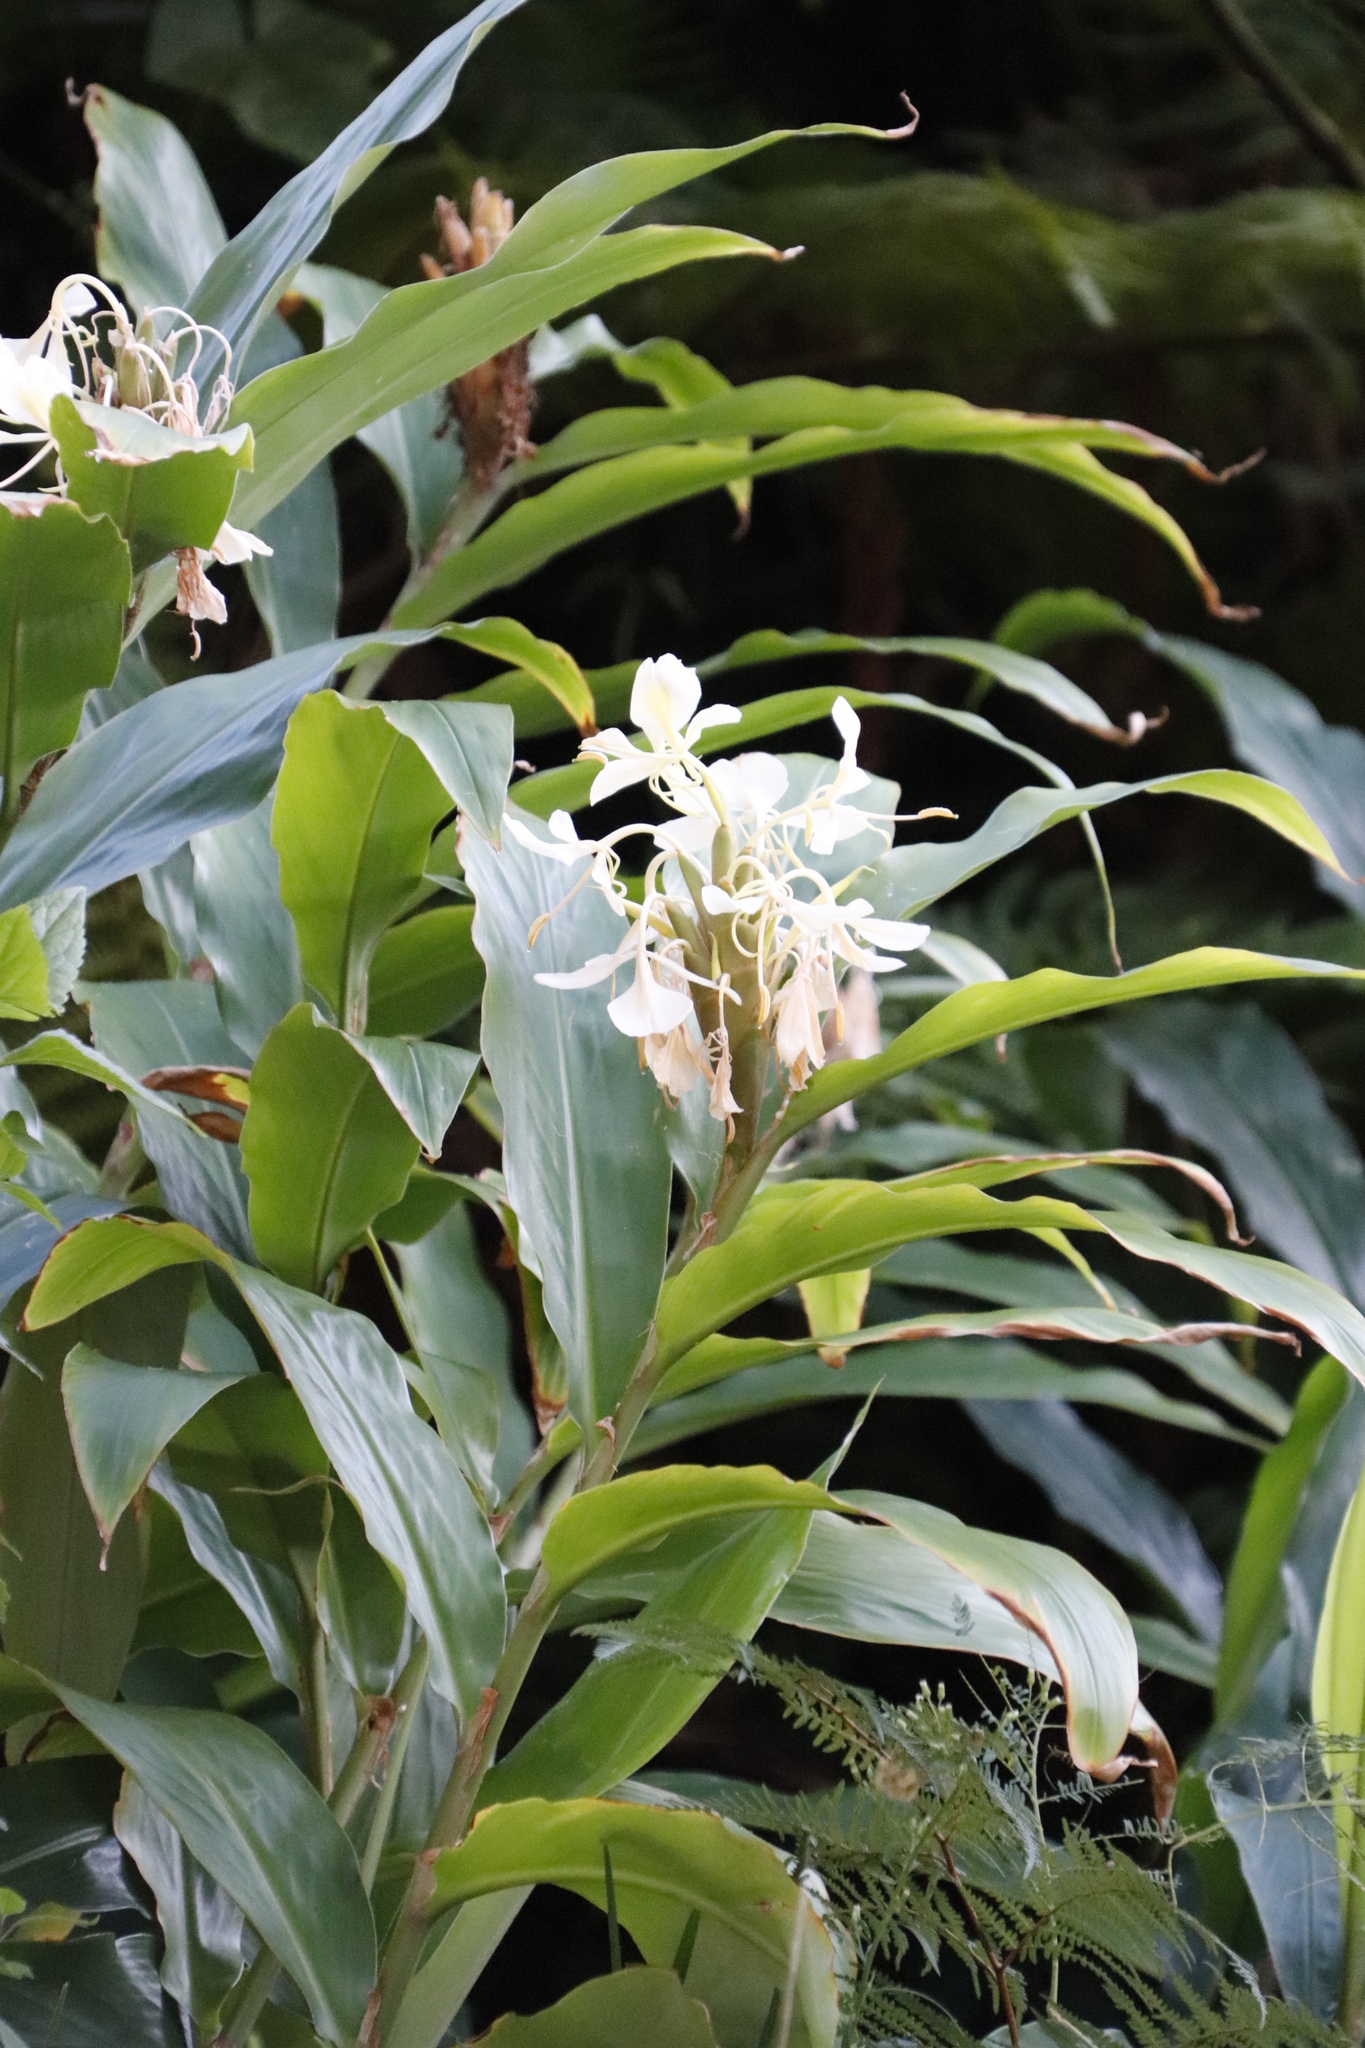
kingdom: Plantae
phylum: Tracheophyta
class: Liliopsida
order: Zingiberales
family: Zingiberaceae
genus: Hedychium
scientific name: Hedychium coronarium
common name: White garland-lily
